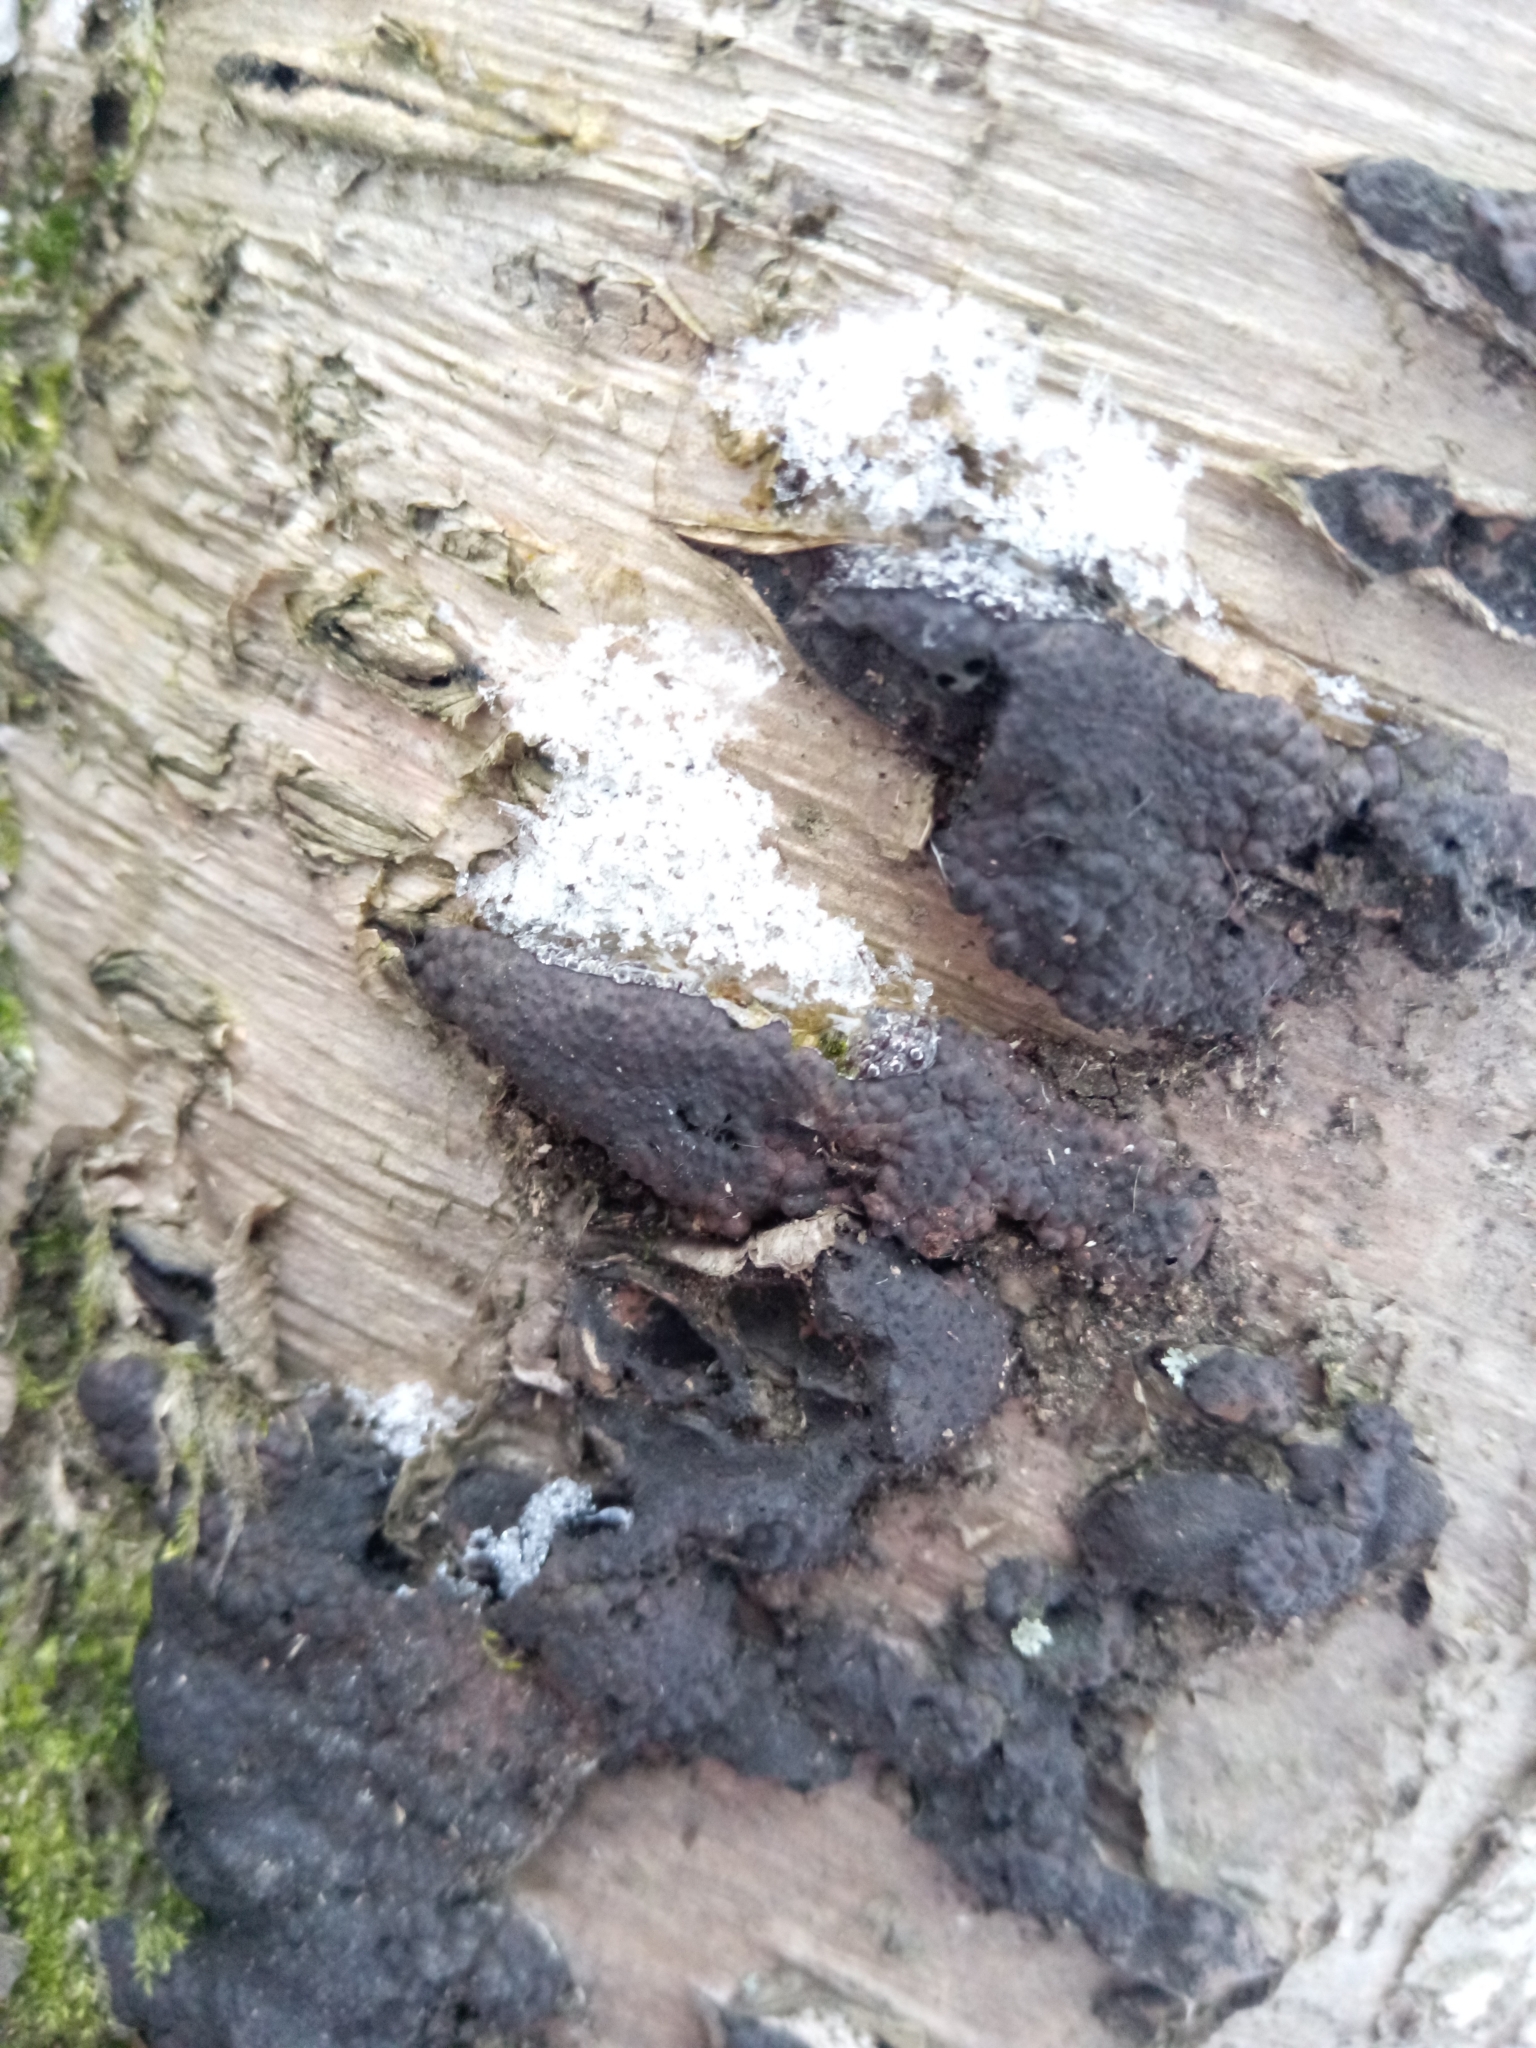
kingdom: Fungi
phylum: Ascomycota
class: Sordariomycetes
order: Xylariales
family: Hypoxylaceae
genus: Jackrogersella
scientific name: Jackrogersella multiformis
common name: Birch woodwart
